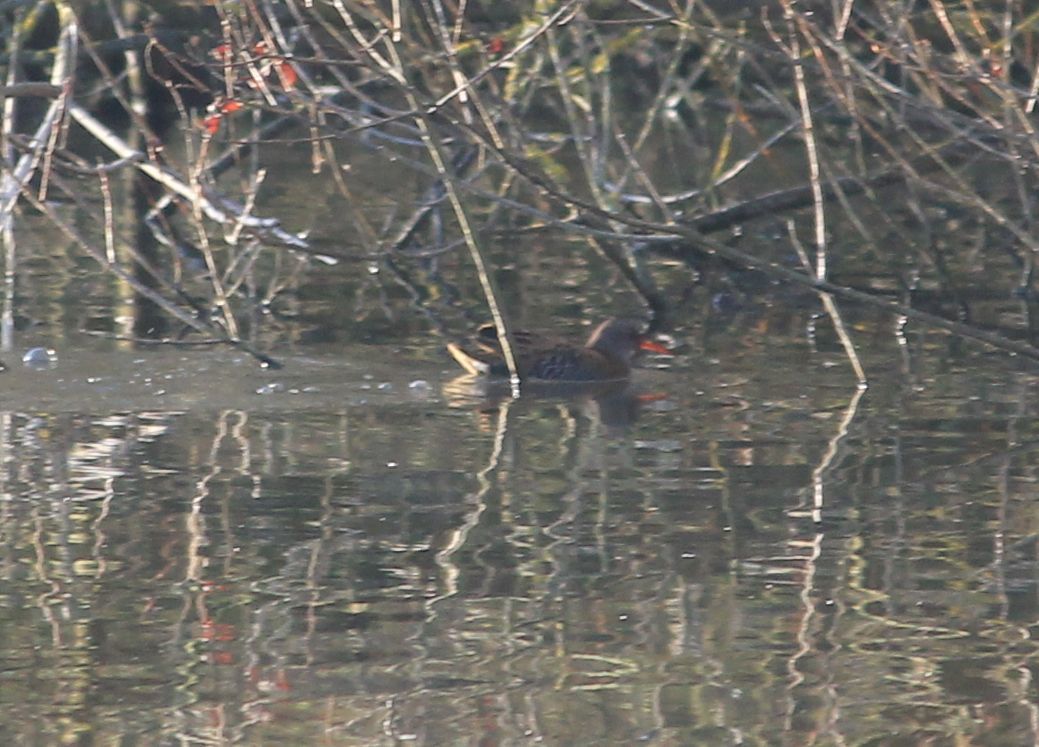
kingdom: Animalia
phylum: Chordata
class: Aves
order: Gruiformes
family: Rallidae
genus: Rallus
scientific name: Rallus aquaticus
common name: Water rail
